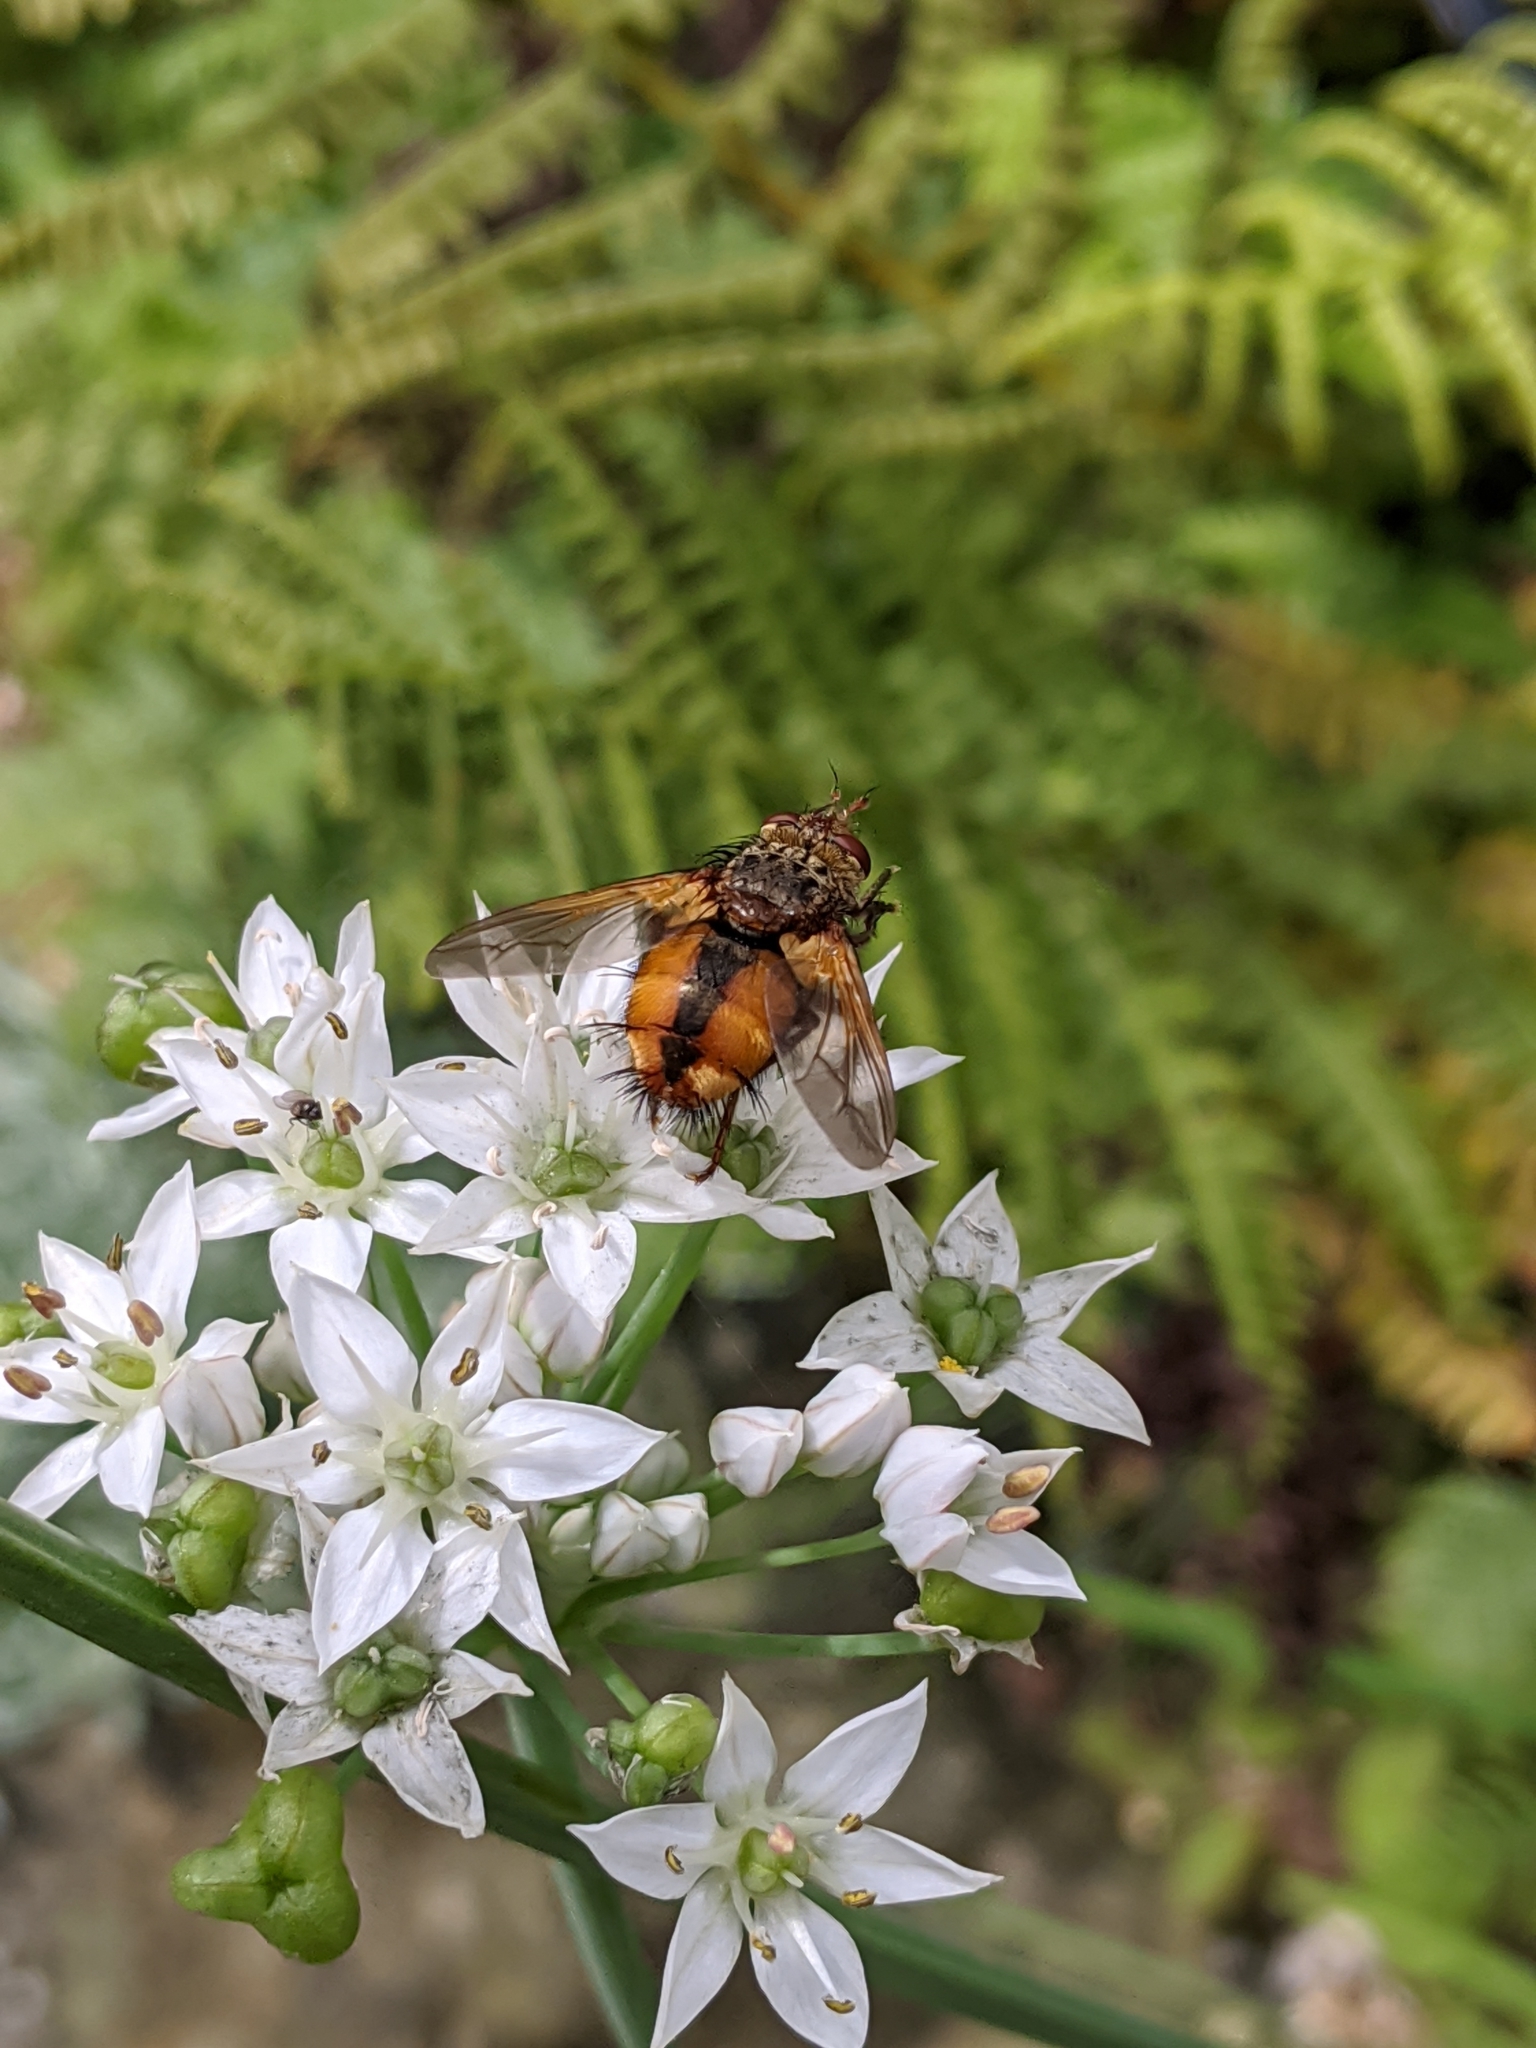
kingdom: Animalia
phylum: Arthropoda
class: Insecta
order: Diptera
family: Tachinidae
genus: Tachina
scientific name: Tachina fera
